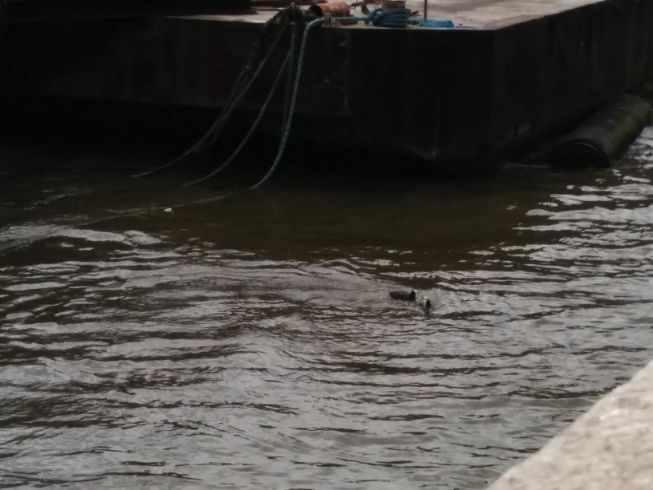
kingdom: Animalia
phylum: Chordata
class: Aves
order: Gruiformes
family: Rallidae
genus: Fulica
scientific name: Fulica atra
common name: Eurasian coot
